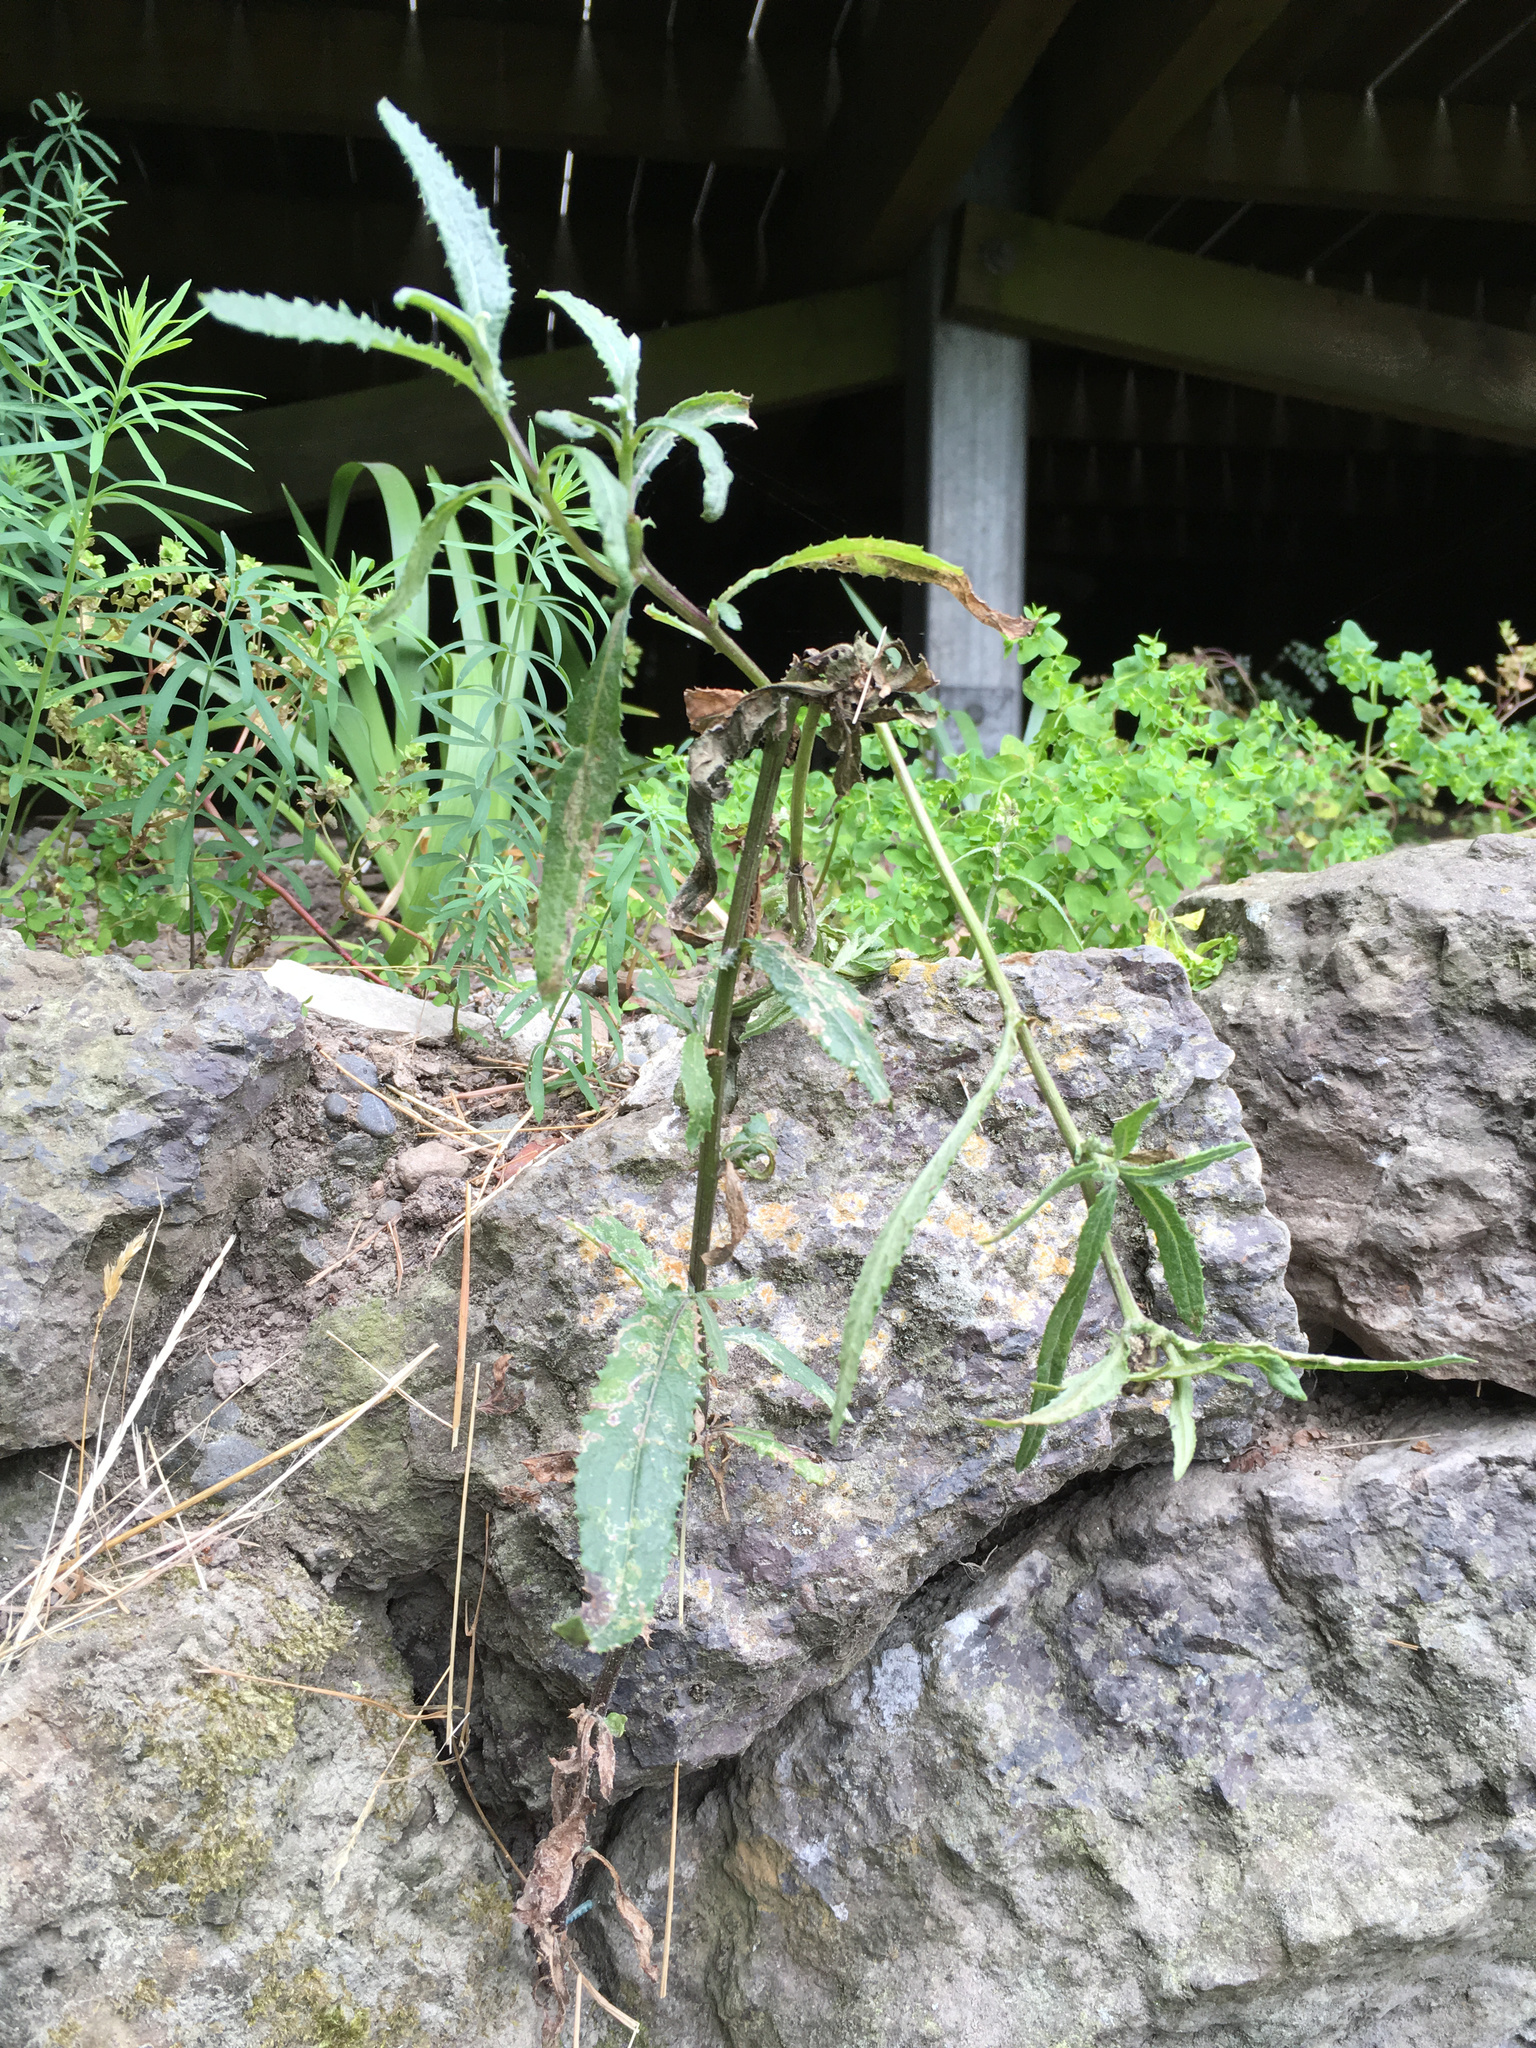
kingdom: Plantae
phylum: Tracheophyta
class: Magnoliopsida
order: Asterales
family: Asteraceae
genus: Senecio
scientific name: Senecio minimus
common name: Toothed fireweed
